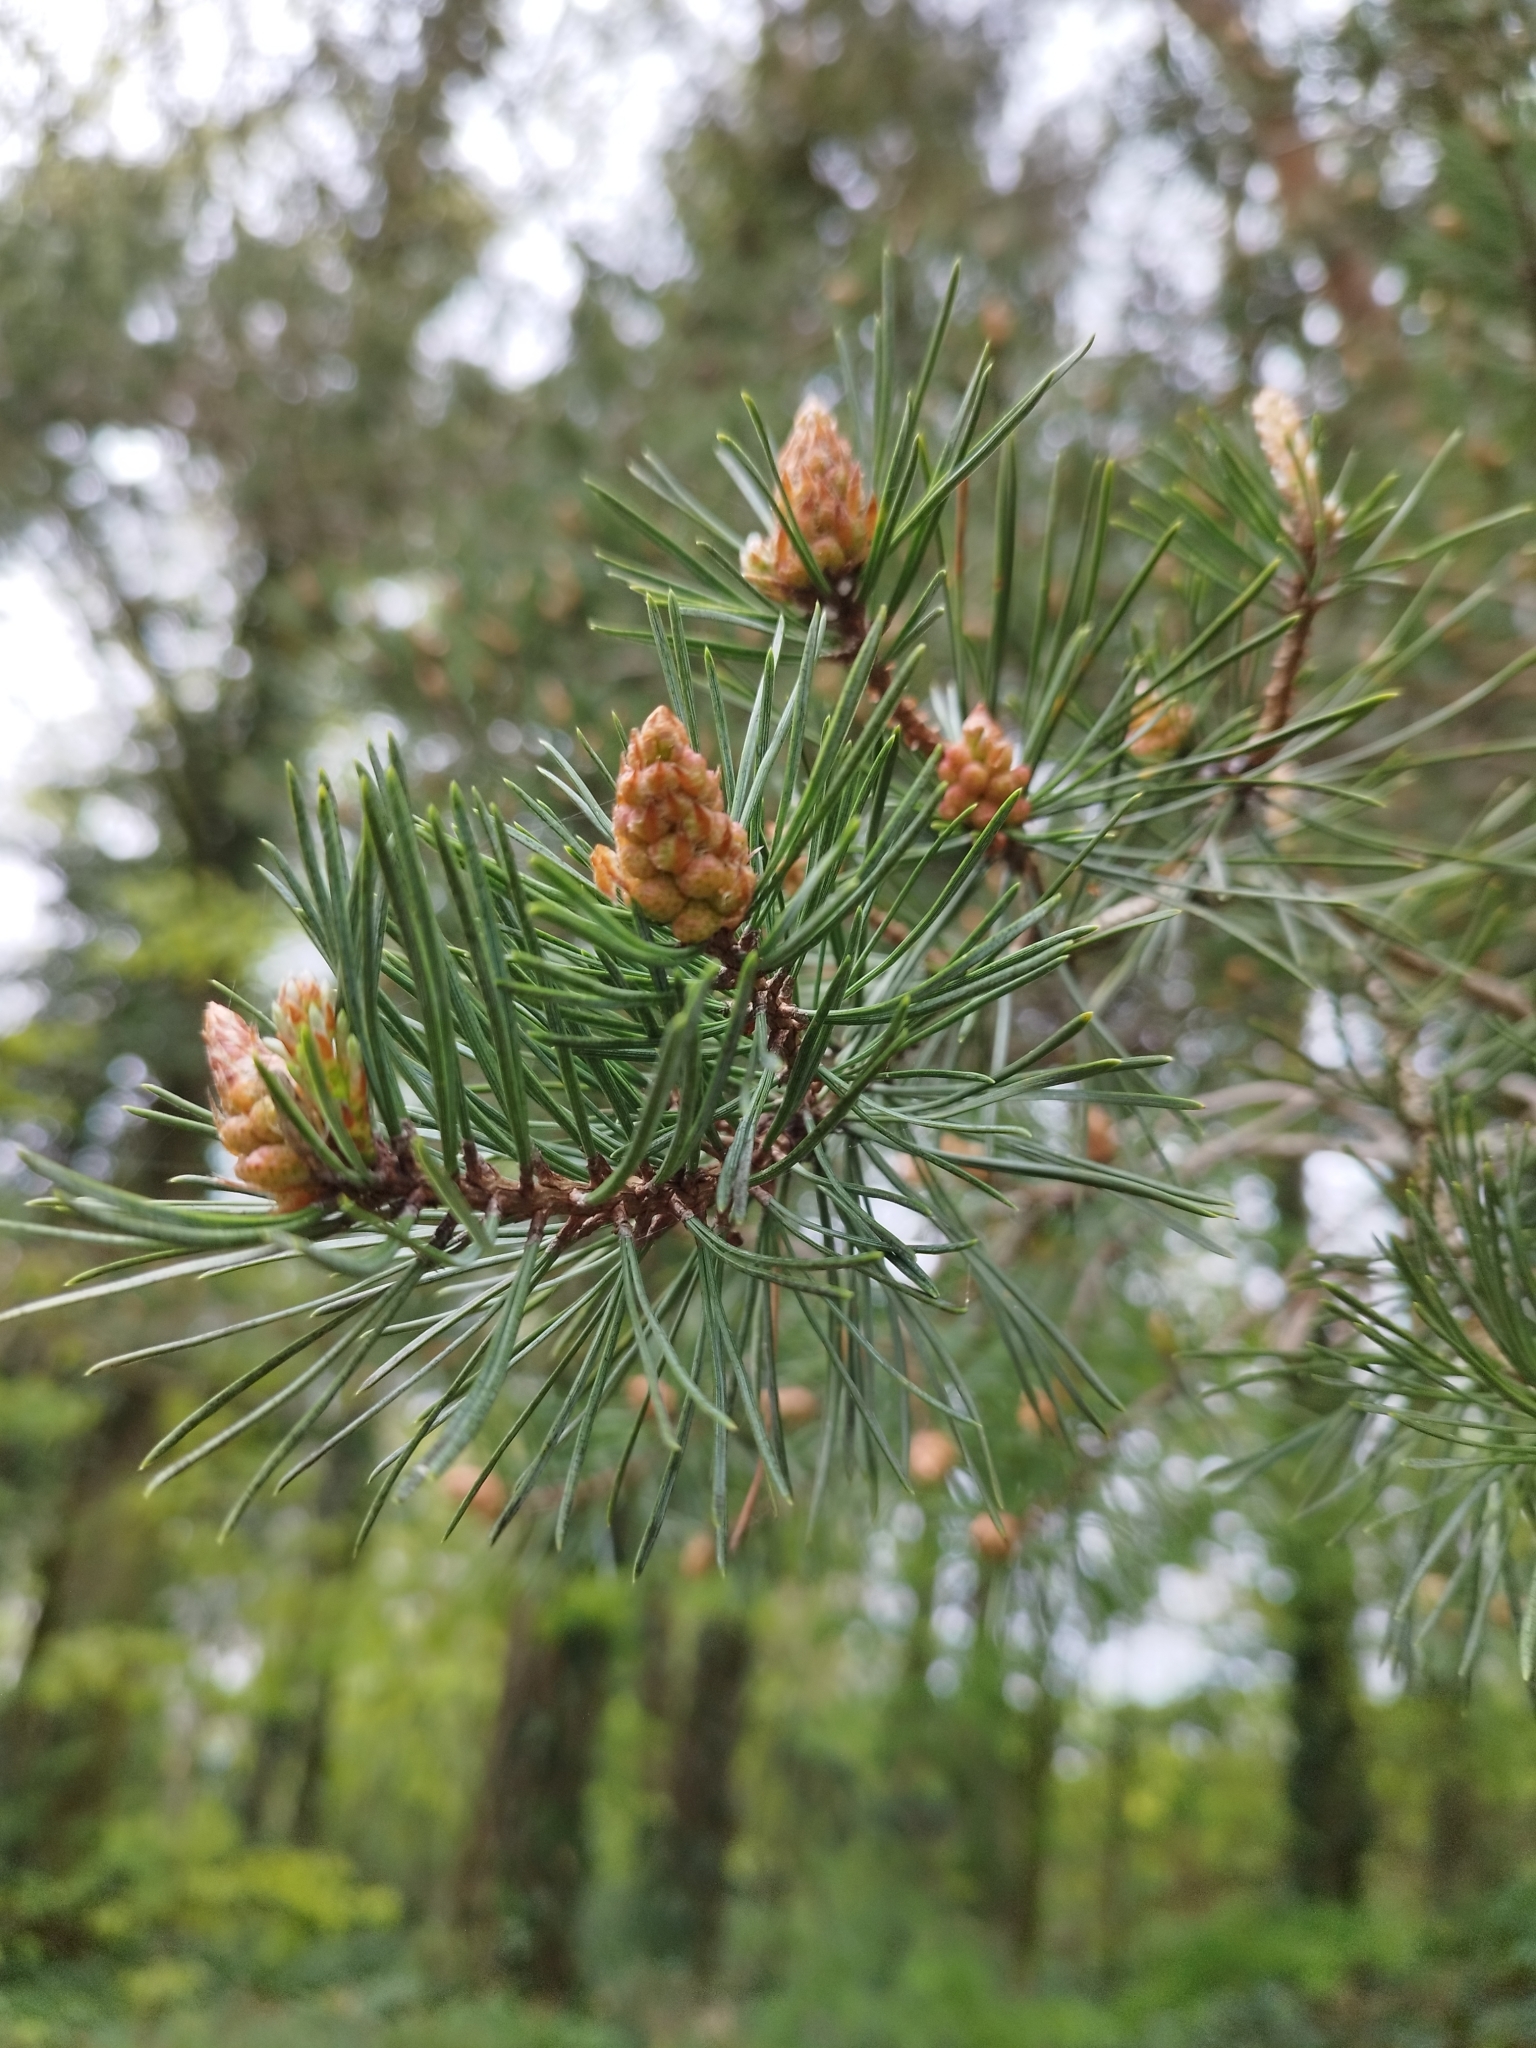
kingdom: Plantae
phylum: Tracheophyta
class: Pinopsida
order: Pinales
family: Pinaceae
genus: Pinus
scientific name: Pinus sylvestris
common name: Scots pine
